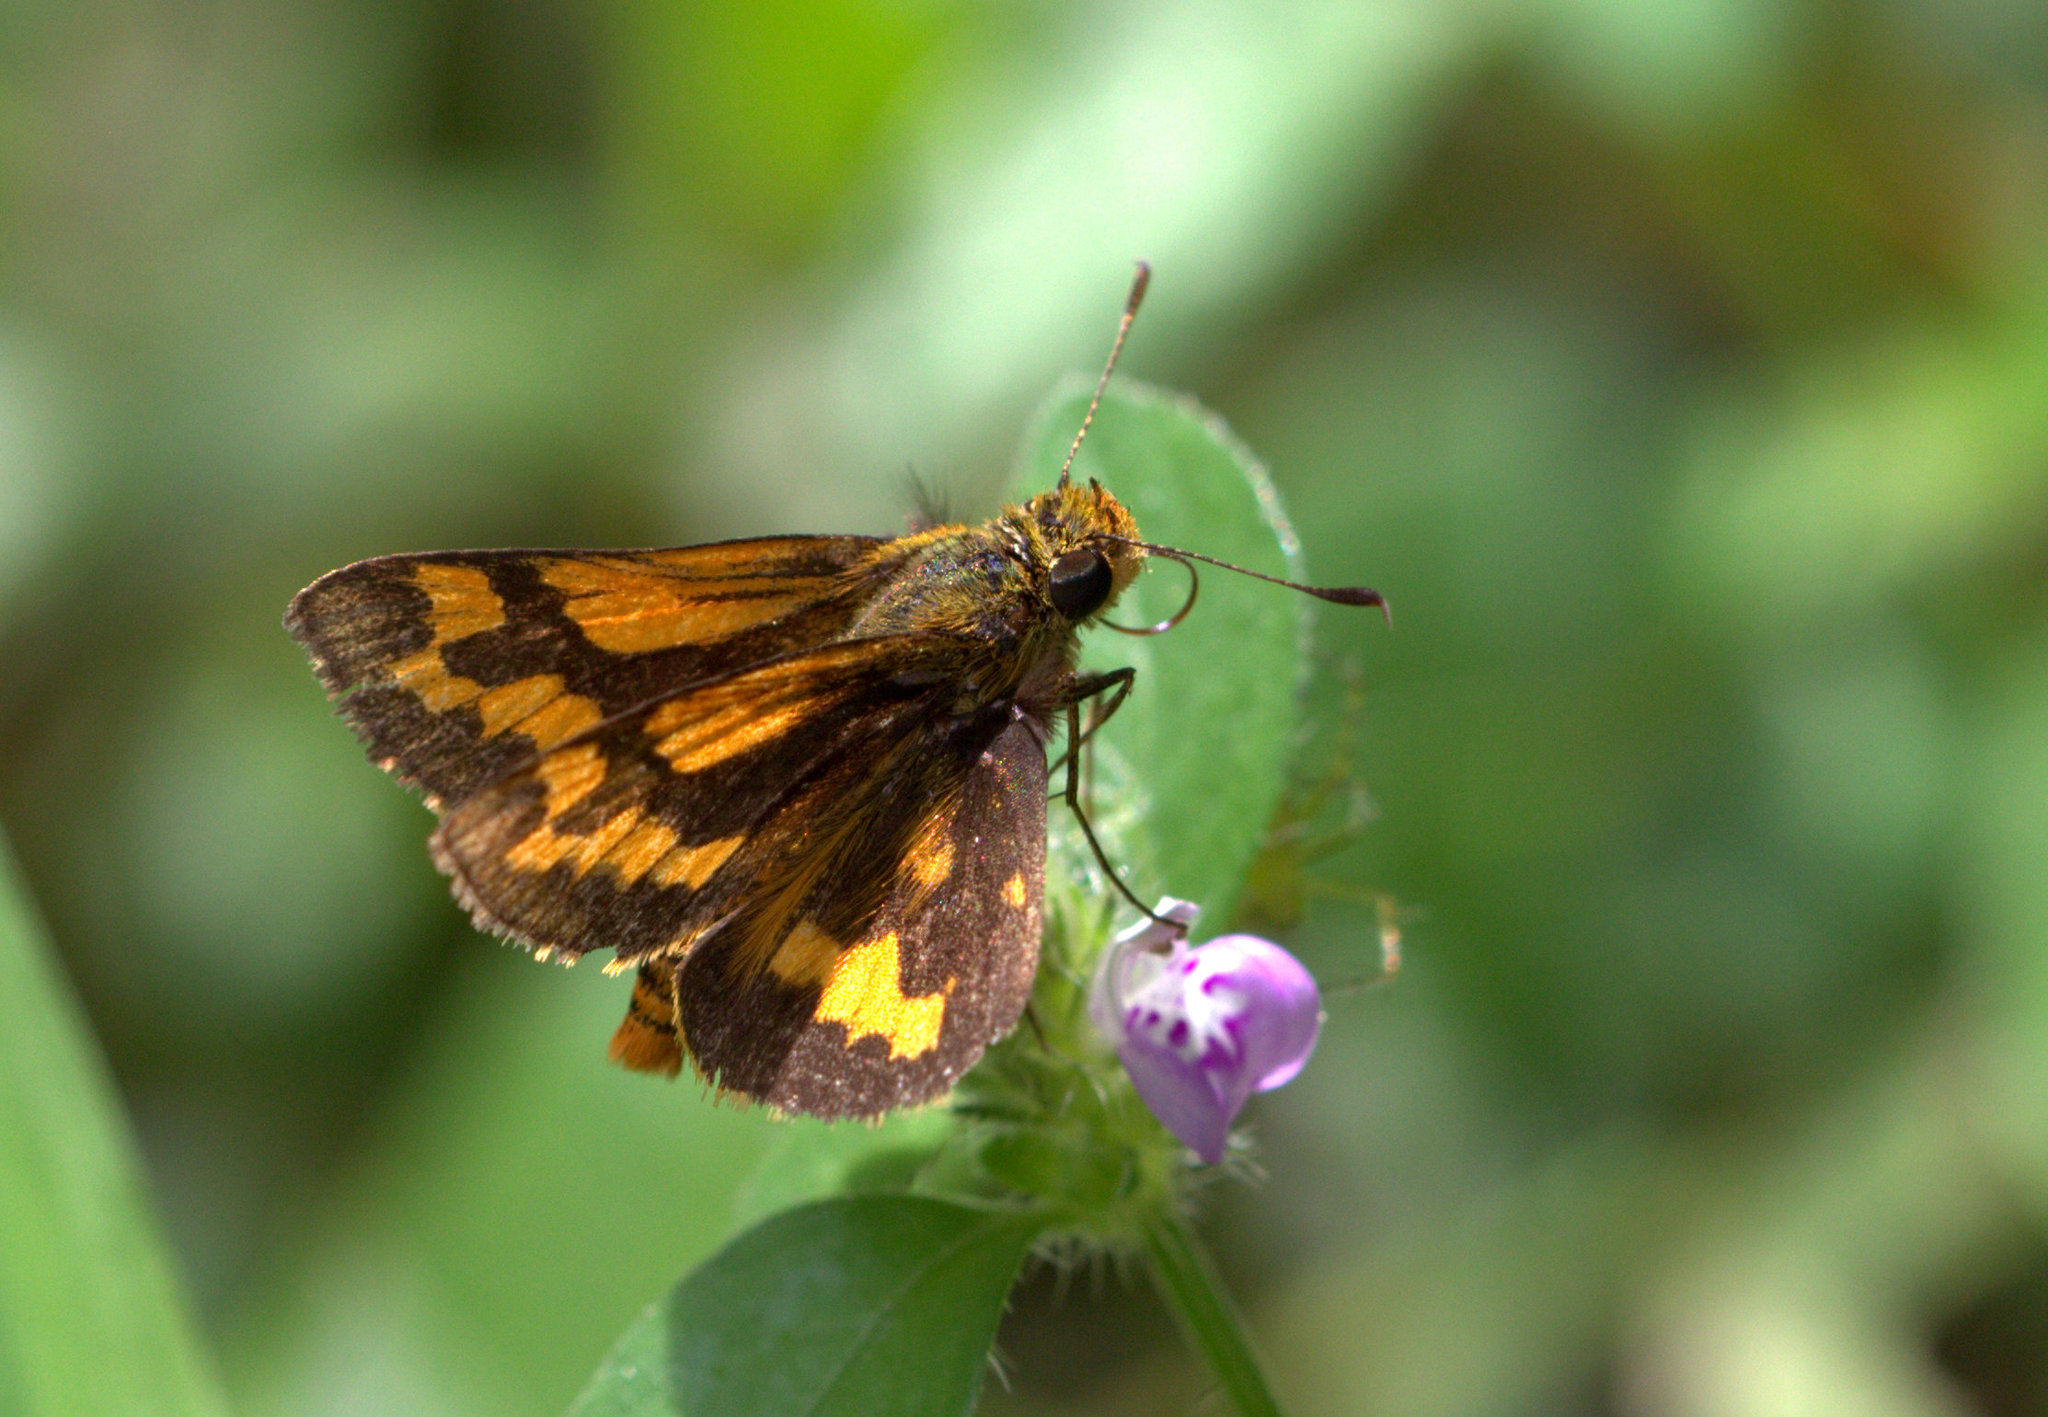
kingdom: Animalia
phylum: Arthropoda
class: Insecta
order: Lepidoptera
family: Hesperiidae
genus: Potanthus
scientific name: Potanthus confucius
